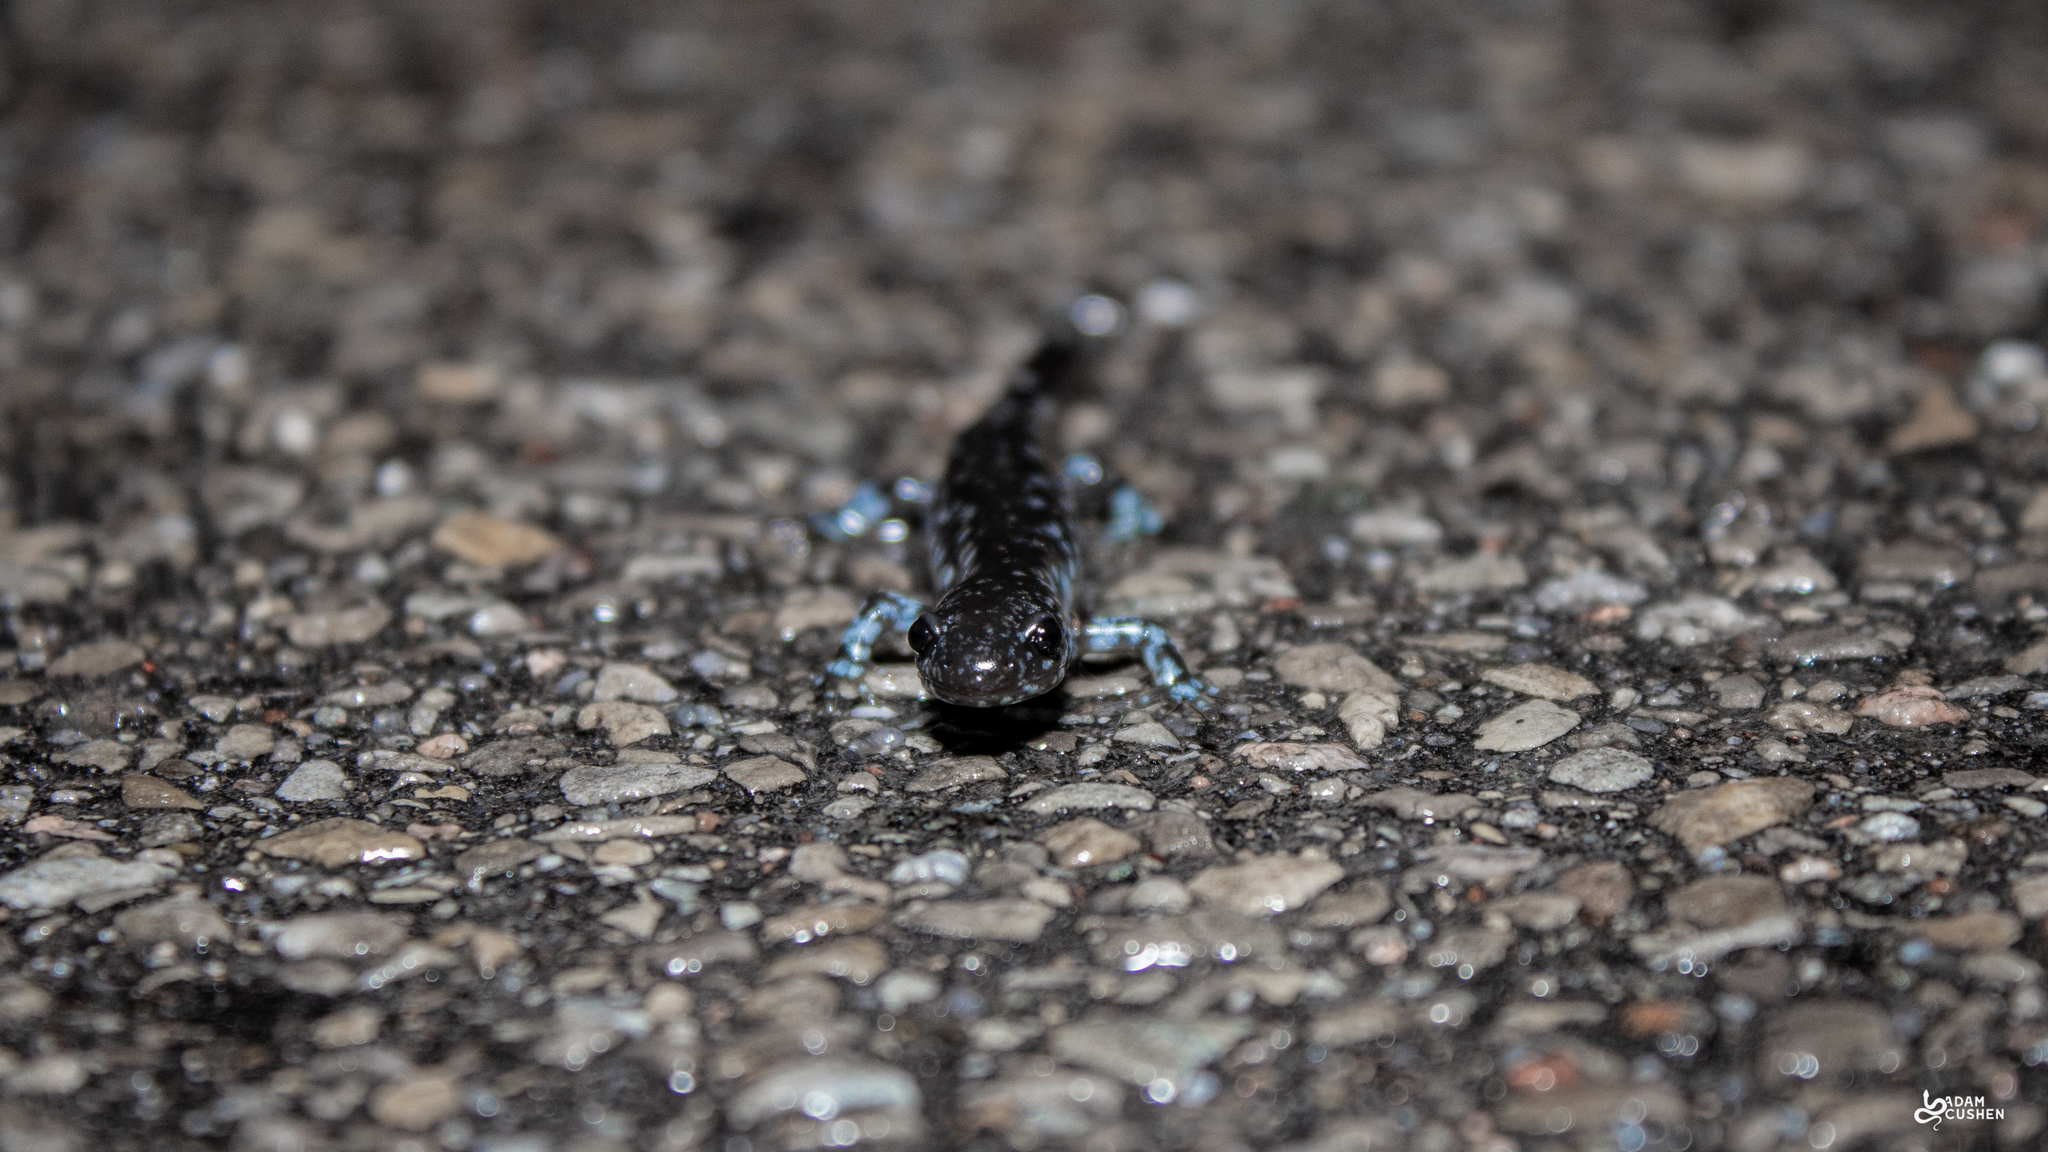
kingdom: Animalia
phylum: Chordata
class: Amphibia
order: Caudata
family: Ambystomatidae
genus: Ambystoma
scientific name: Ambystoma laterale
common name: Blue-spotted salamander
